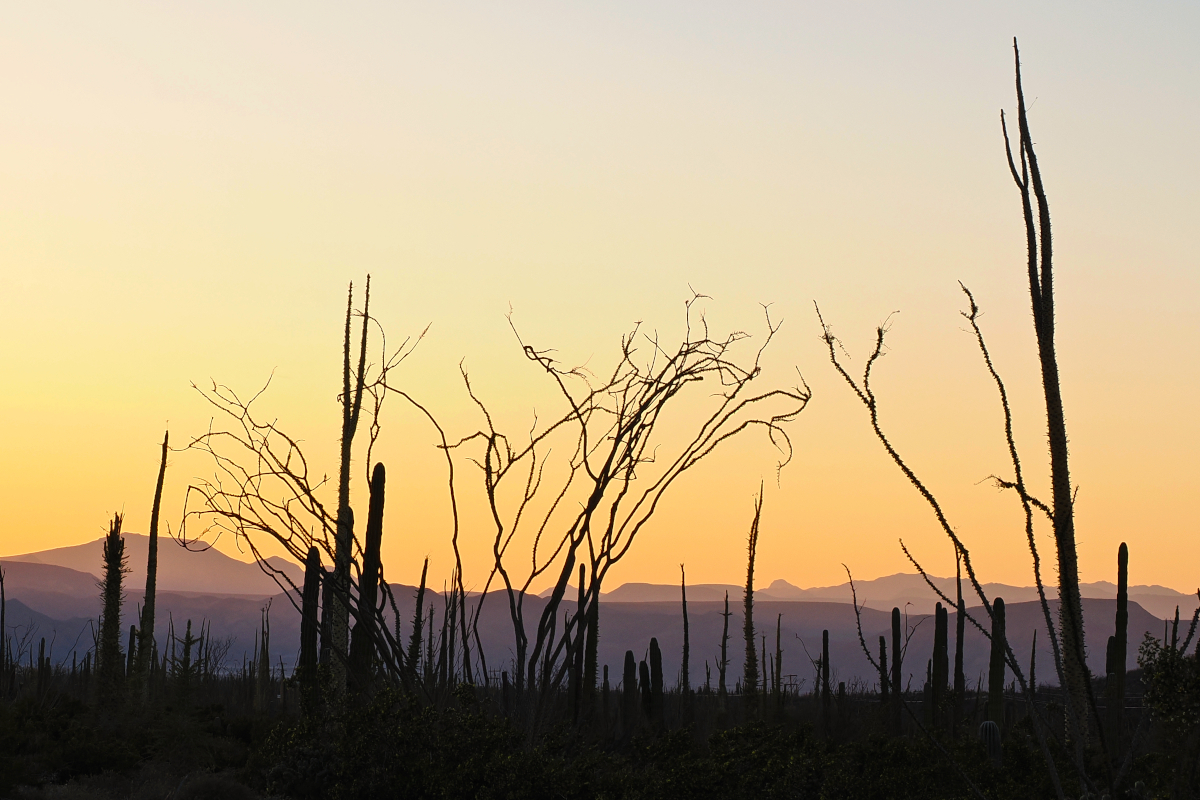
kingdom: Plantae
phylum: Tracheophyta
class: Magnoliopsida
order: Ericales
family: Fouquieriaceae
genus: Fouquieria
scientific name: Fouquieria columnaris
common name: Boojumtree
